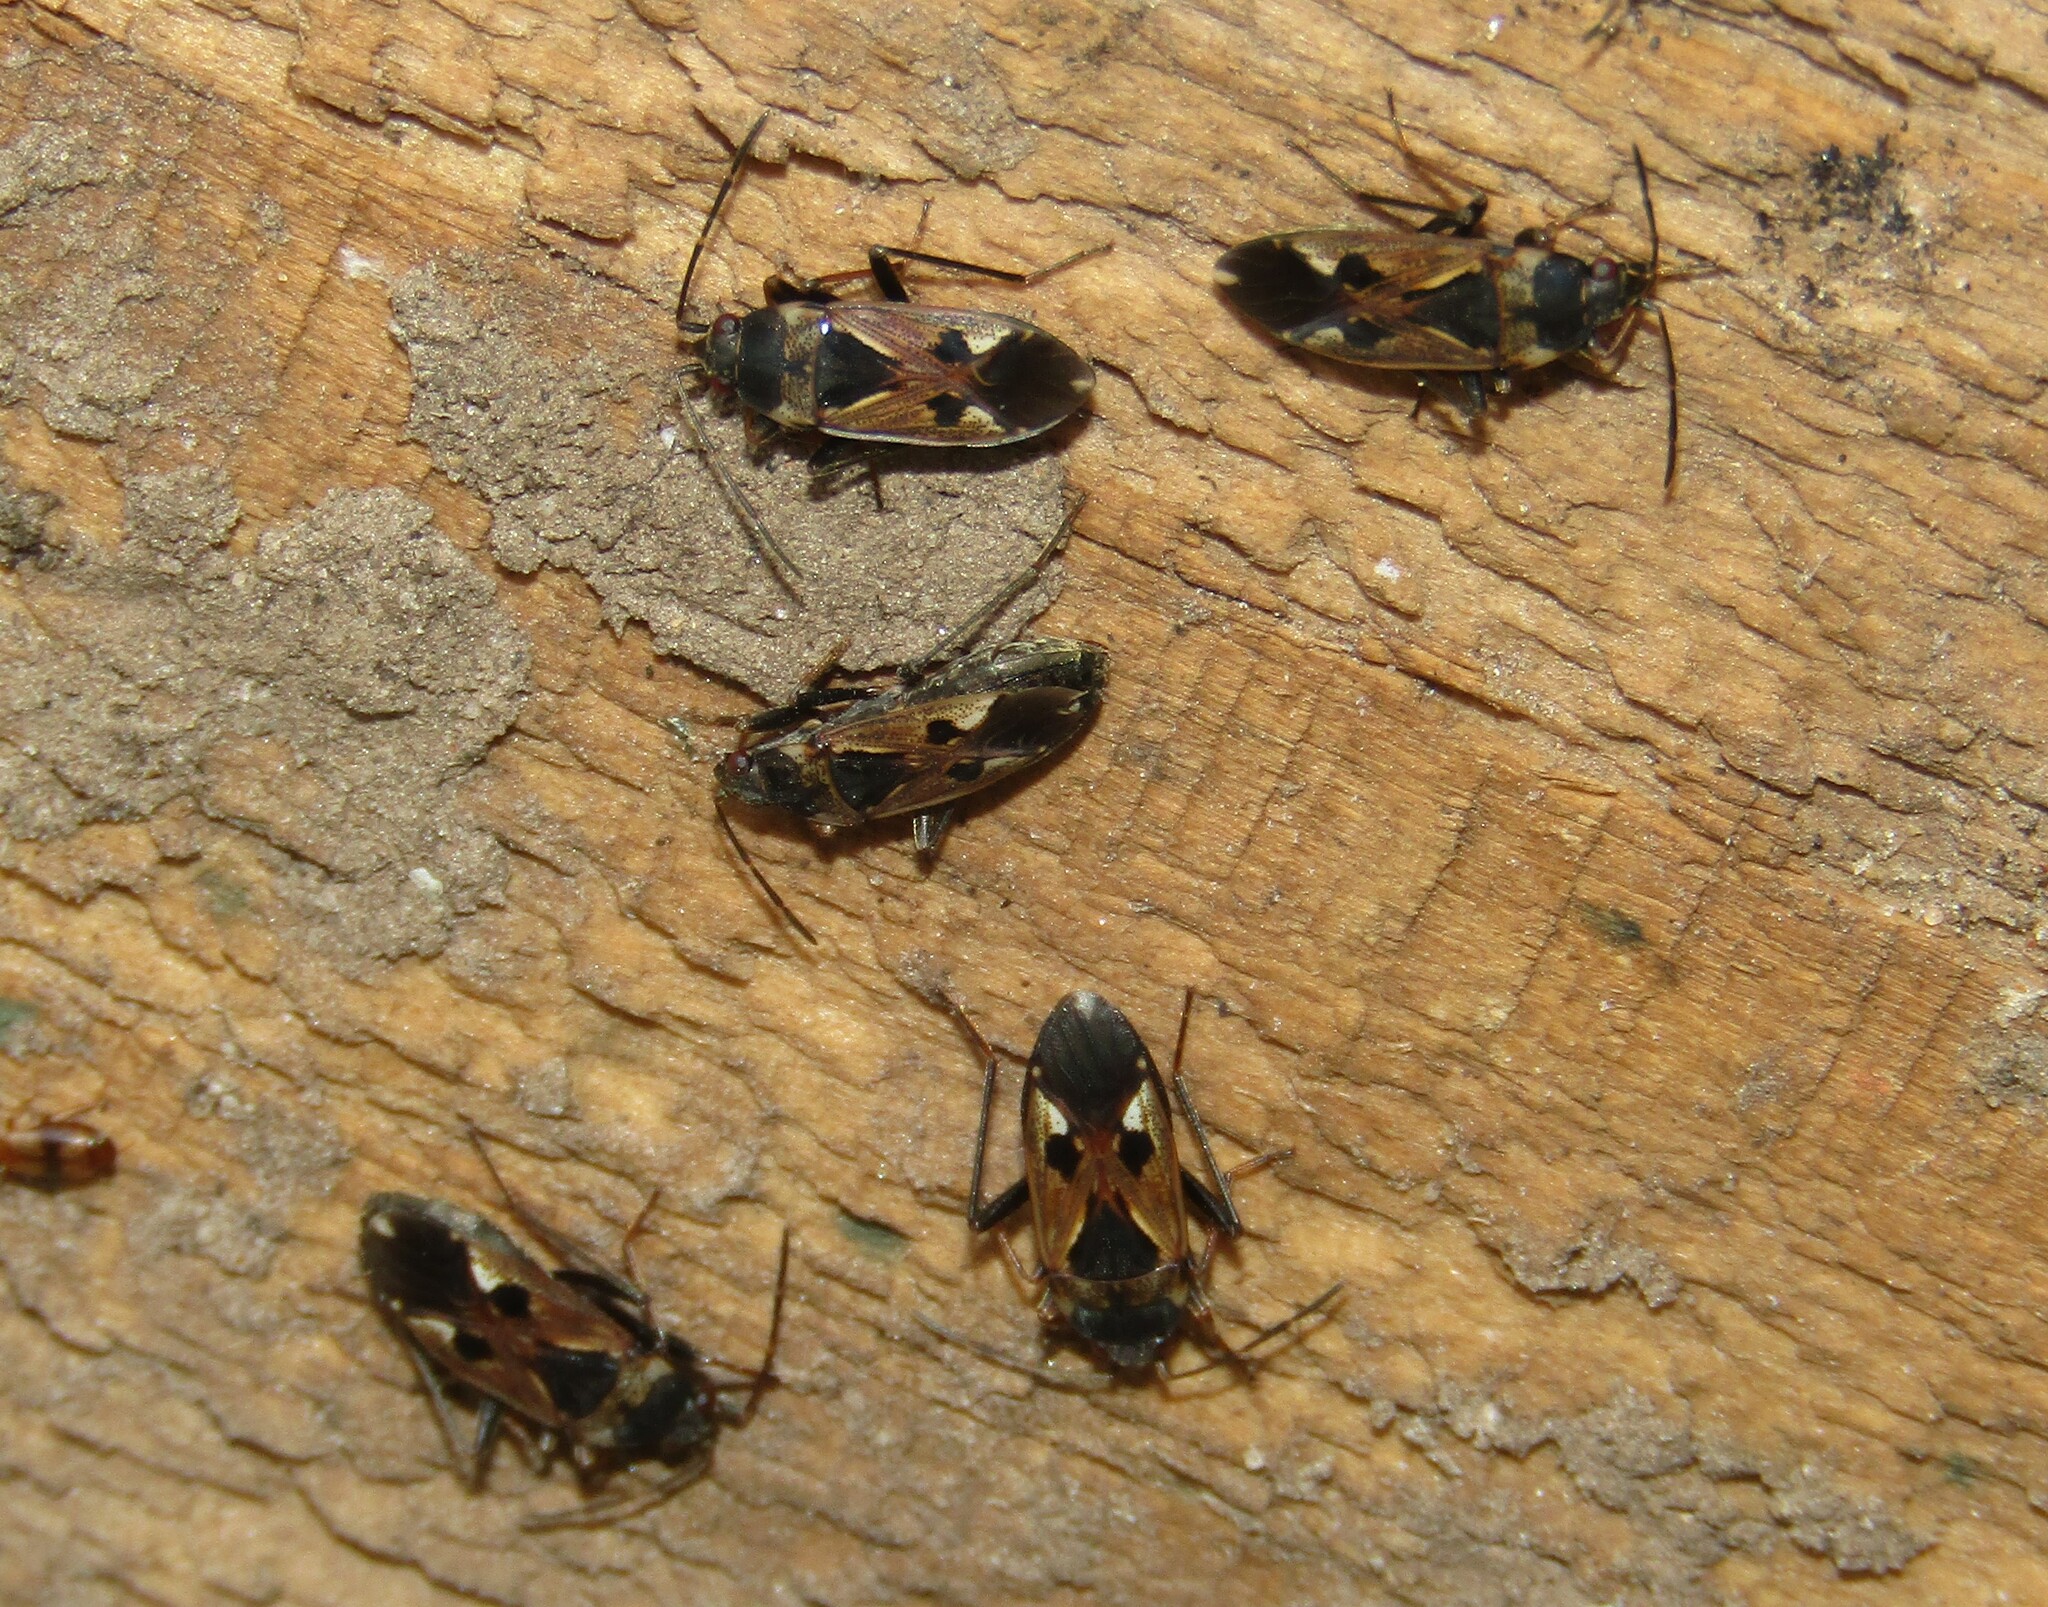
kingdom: Animalia
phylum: Arthropoda
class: Insecta
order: Hemiptera
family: Rhyparochromidae
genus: Rhyparochromus
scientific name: Rhyparochromus vulgaris
